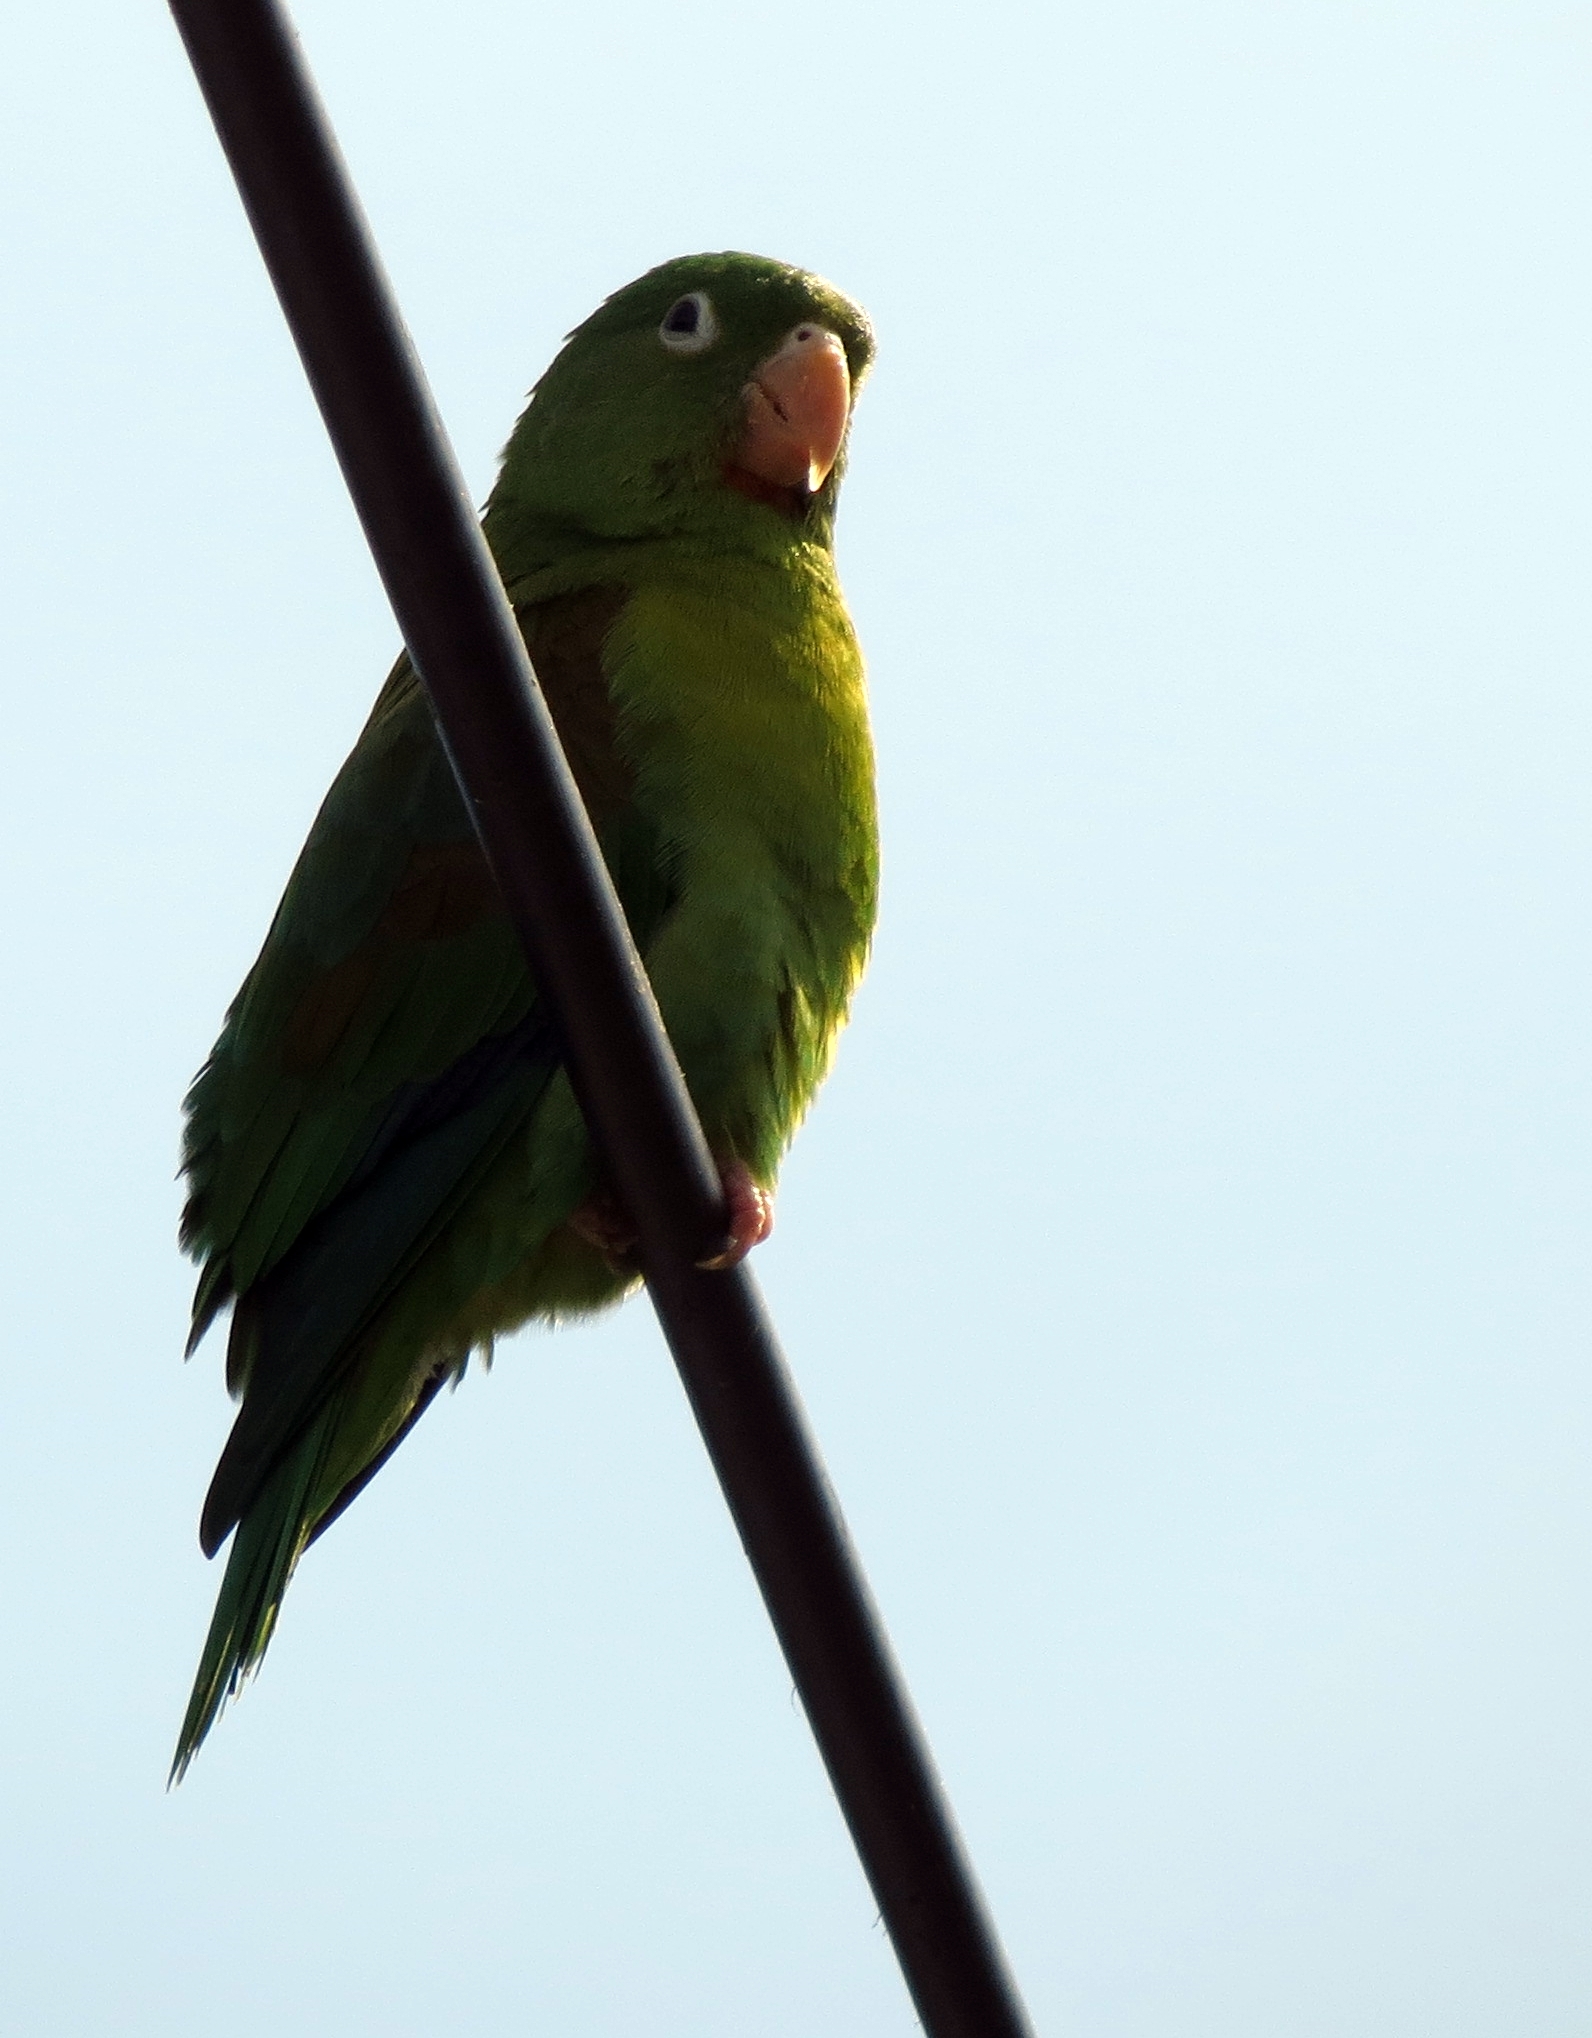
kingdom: Animalia
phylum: Chordata
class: Aves
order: Psittaciformes
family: Psittacidae
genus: Brotogeris
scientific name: Brotogeris jugularis
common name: Orange-chinned parakeet
